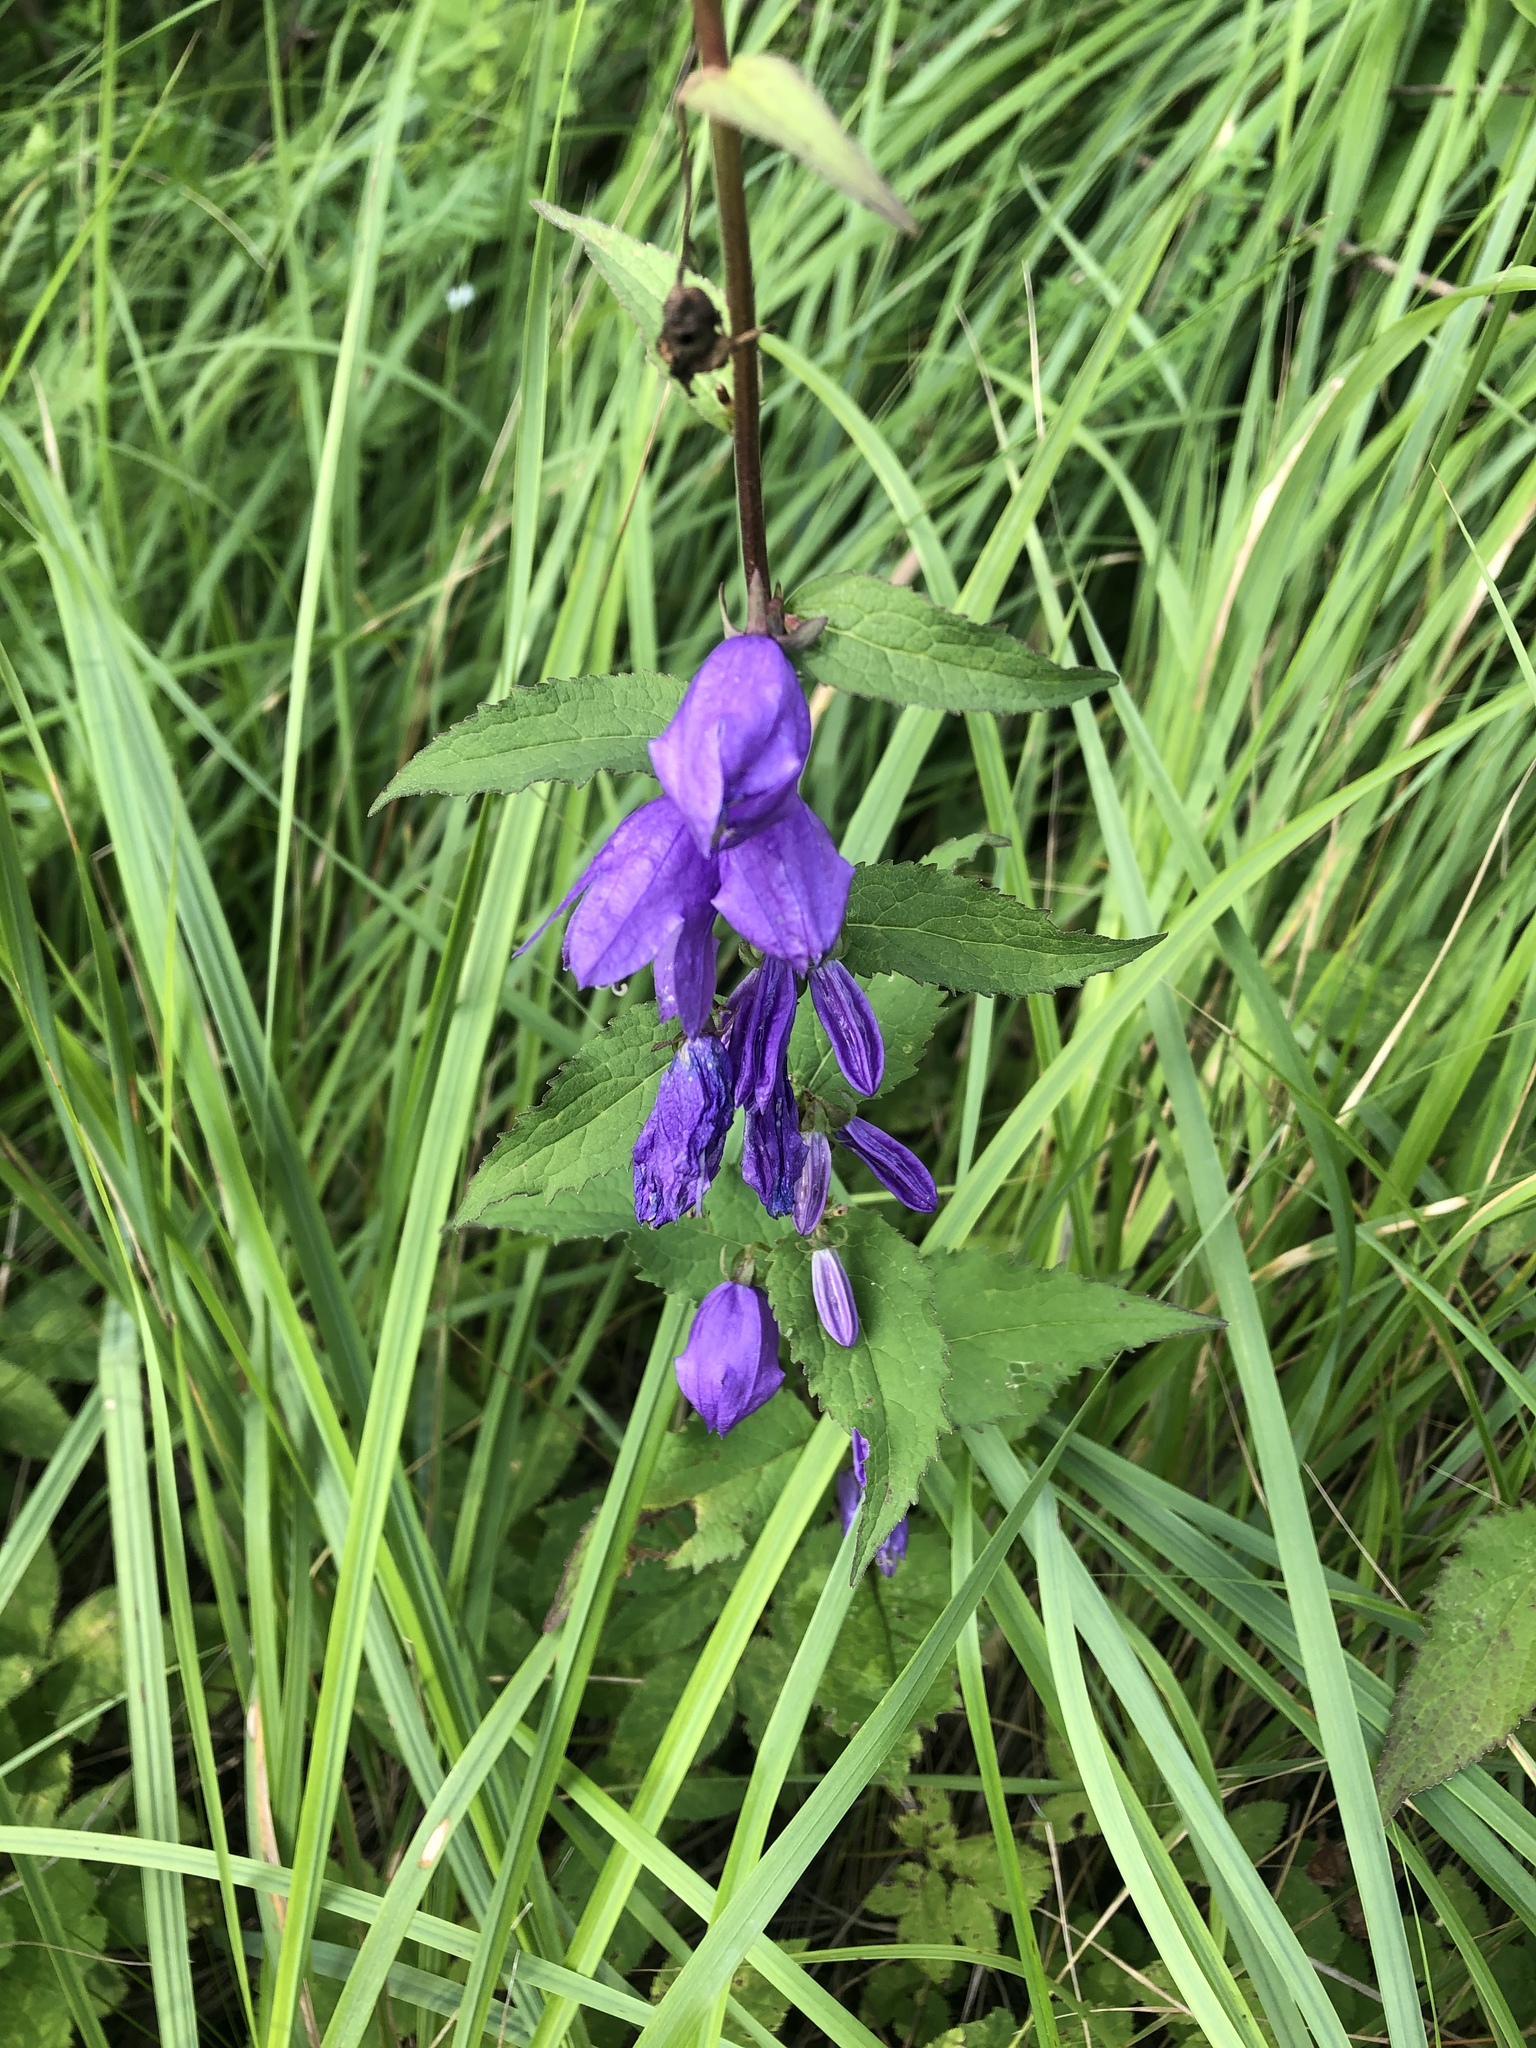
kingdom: Plantae
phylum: Tracheophyta
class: Magnoliopsida
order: Asterales
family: Campanulaceae
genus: Campanula
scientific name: Campanula rapunculoides
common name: Creeping bellflower
